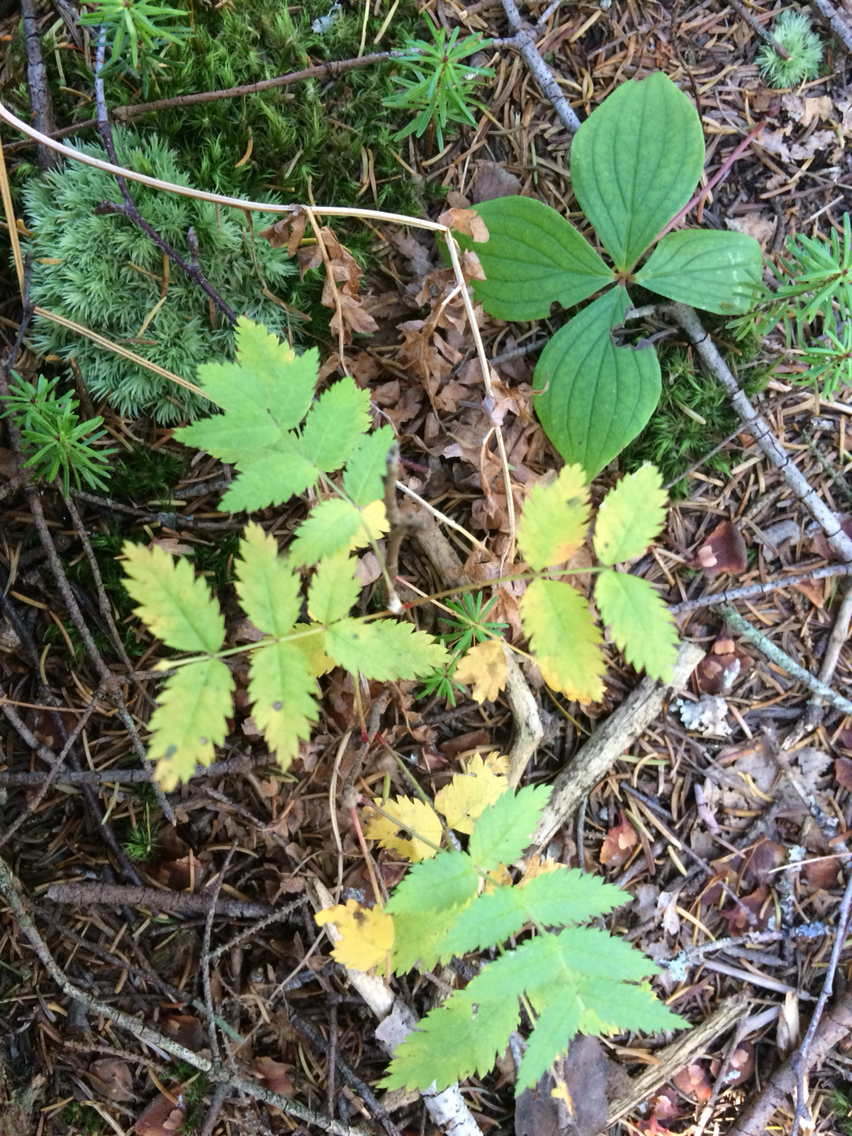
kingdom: Plantae
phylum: Tracheophyta
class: Magnoliopsida
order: Rosales
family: Rosaceae
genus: Sorbus
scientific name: Sorbus americana
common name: American mountain-ash
